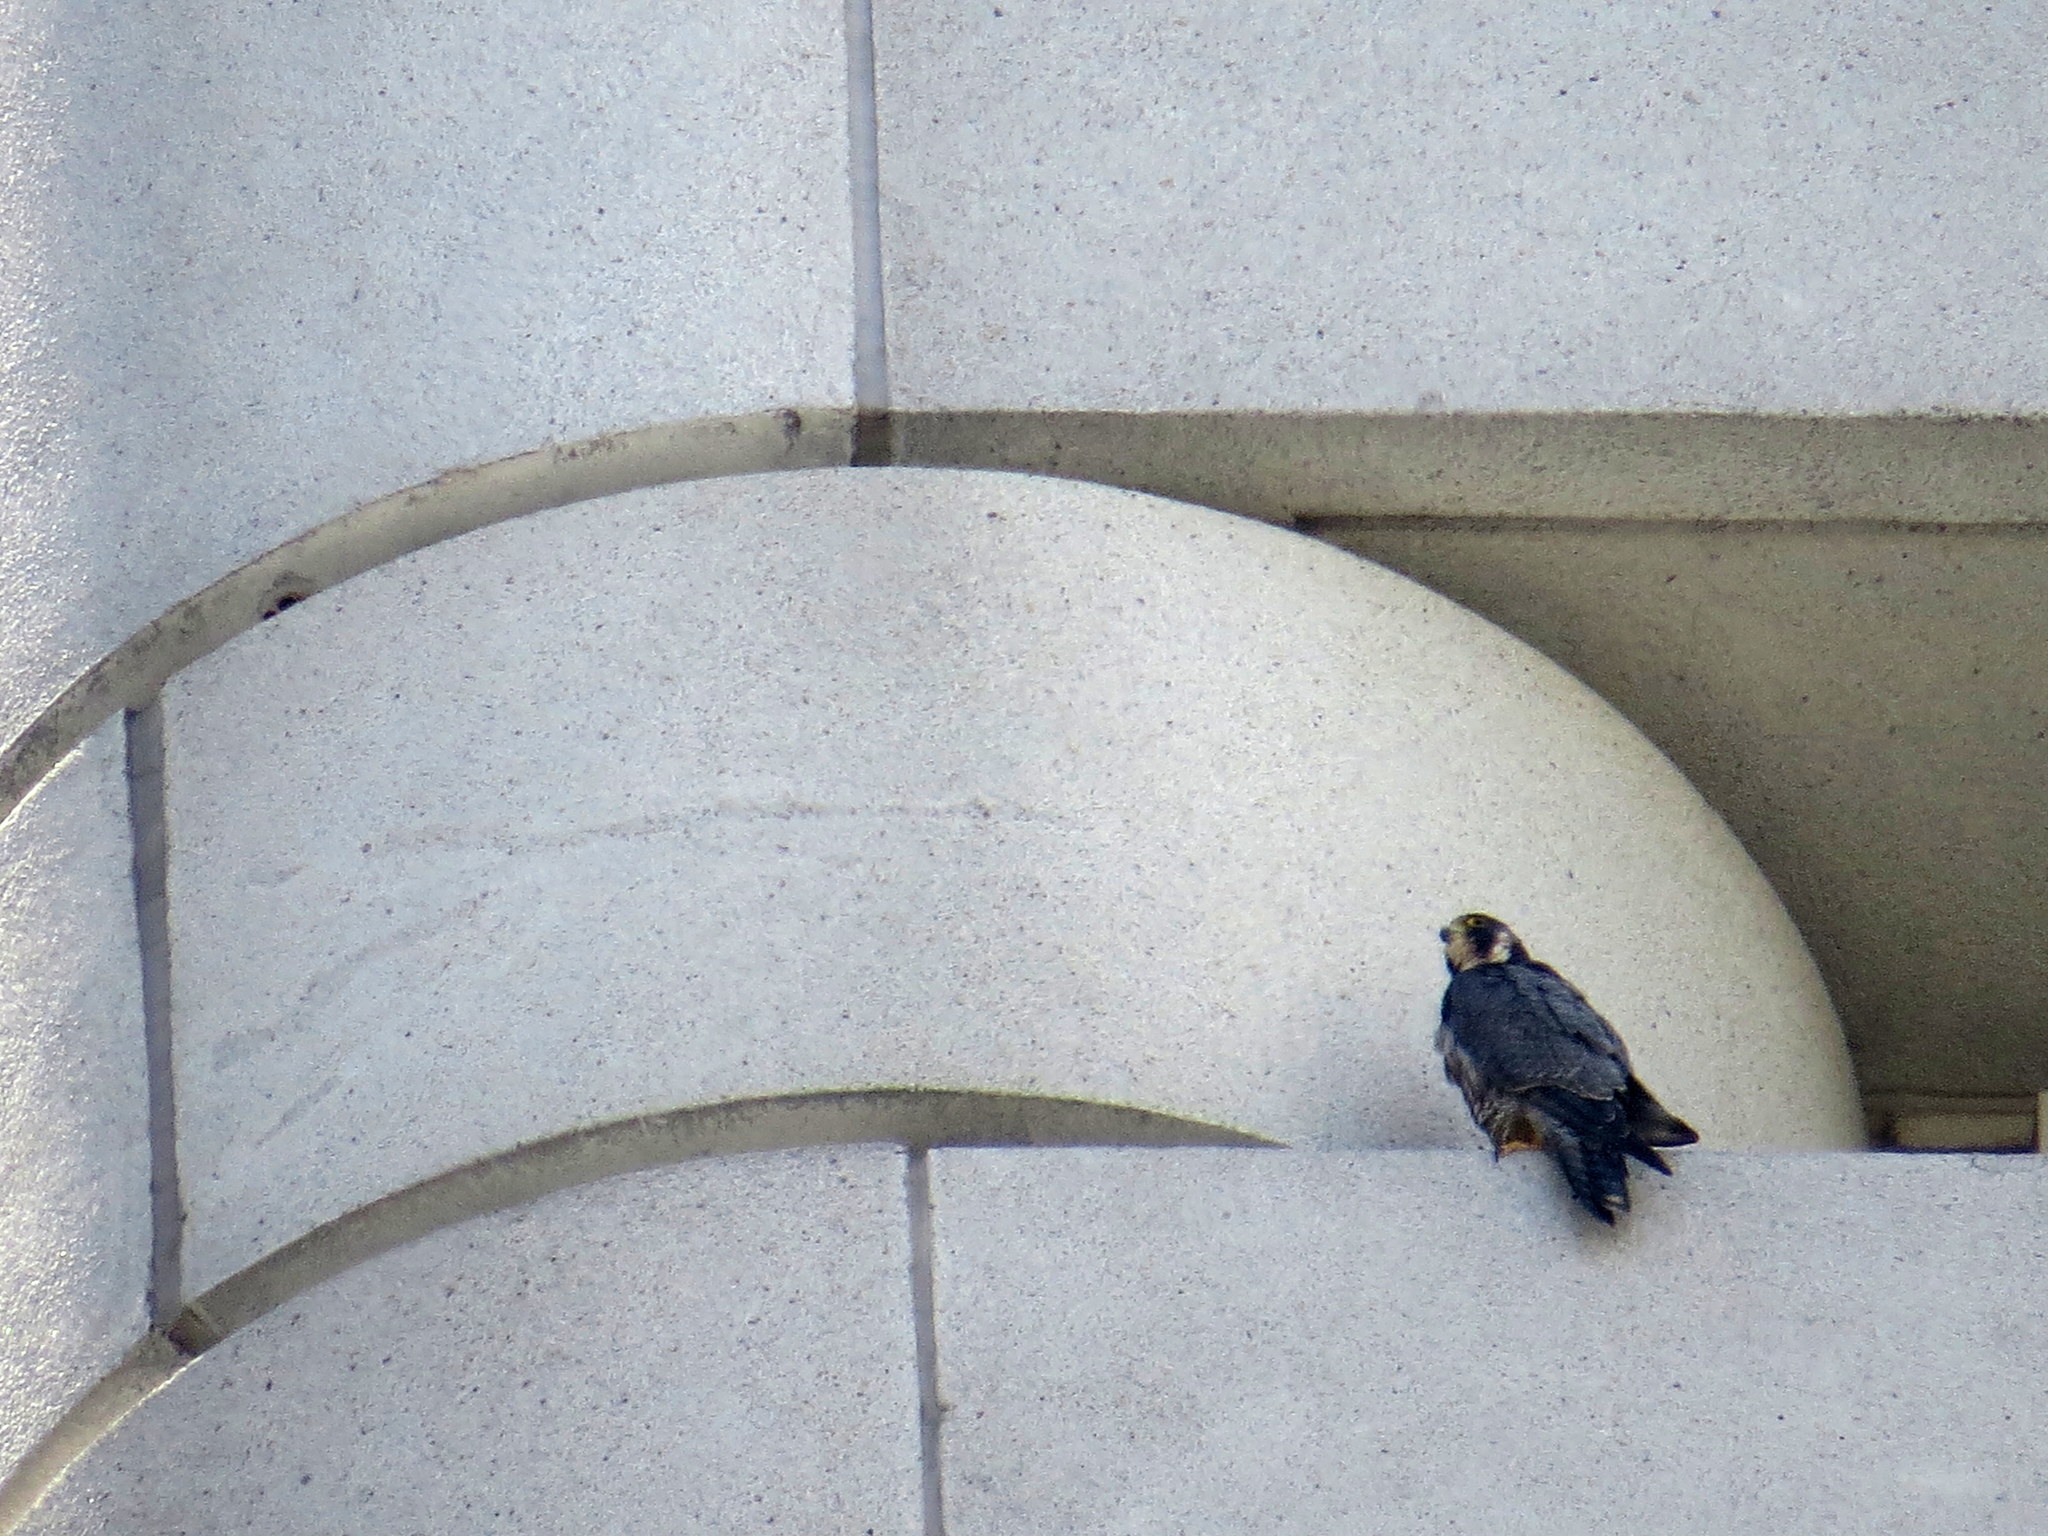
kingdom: Animalia
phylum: Chordata
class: Aves
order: Falconiformes
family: Falconidae
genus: Falco
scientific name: Falco peregrinus
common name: Peregrine falcon
